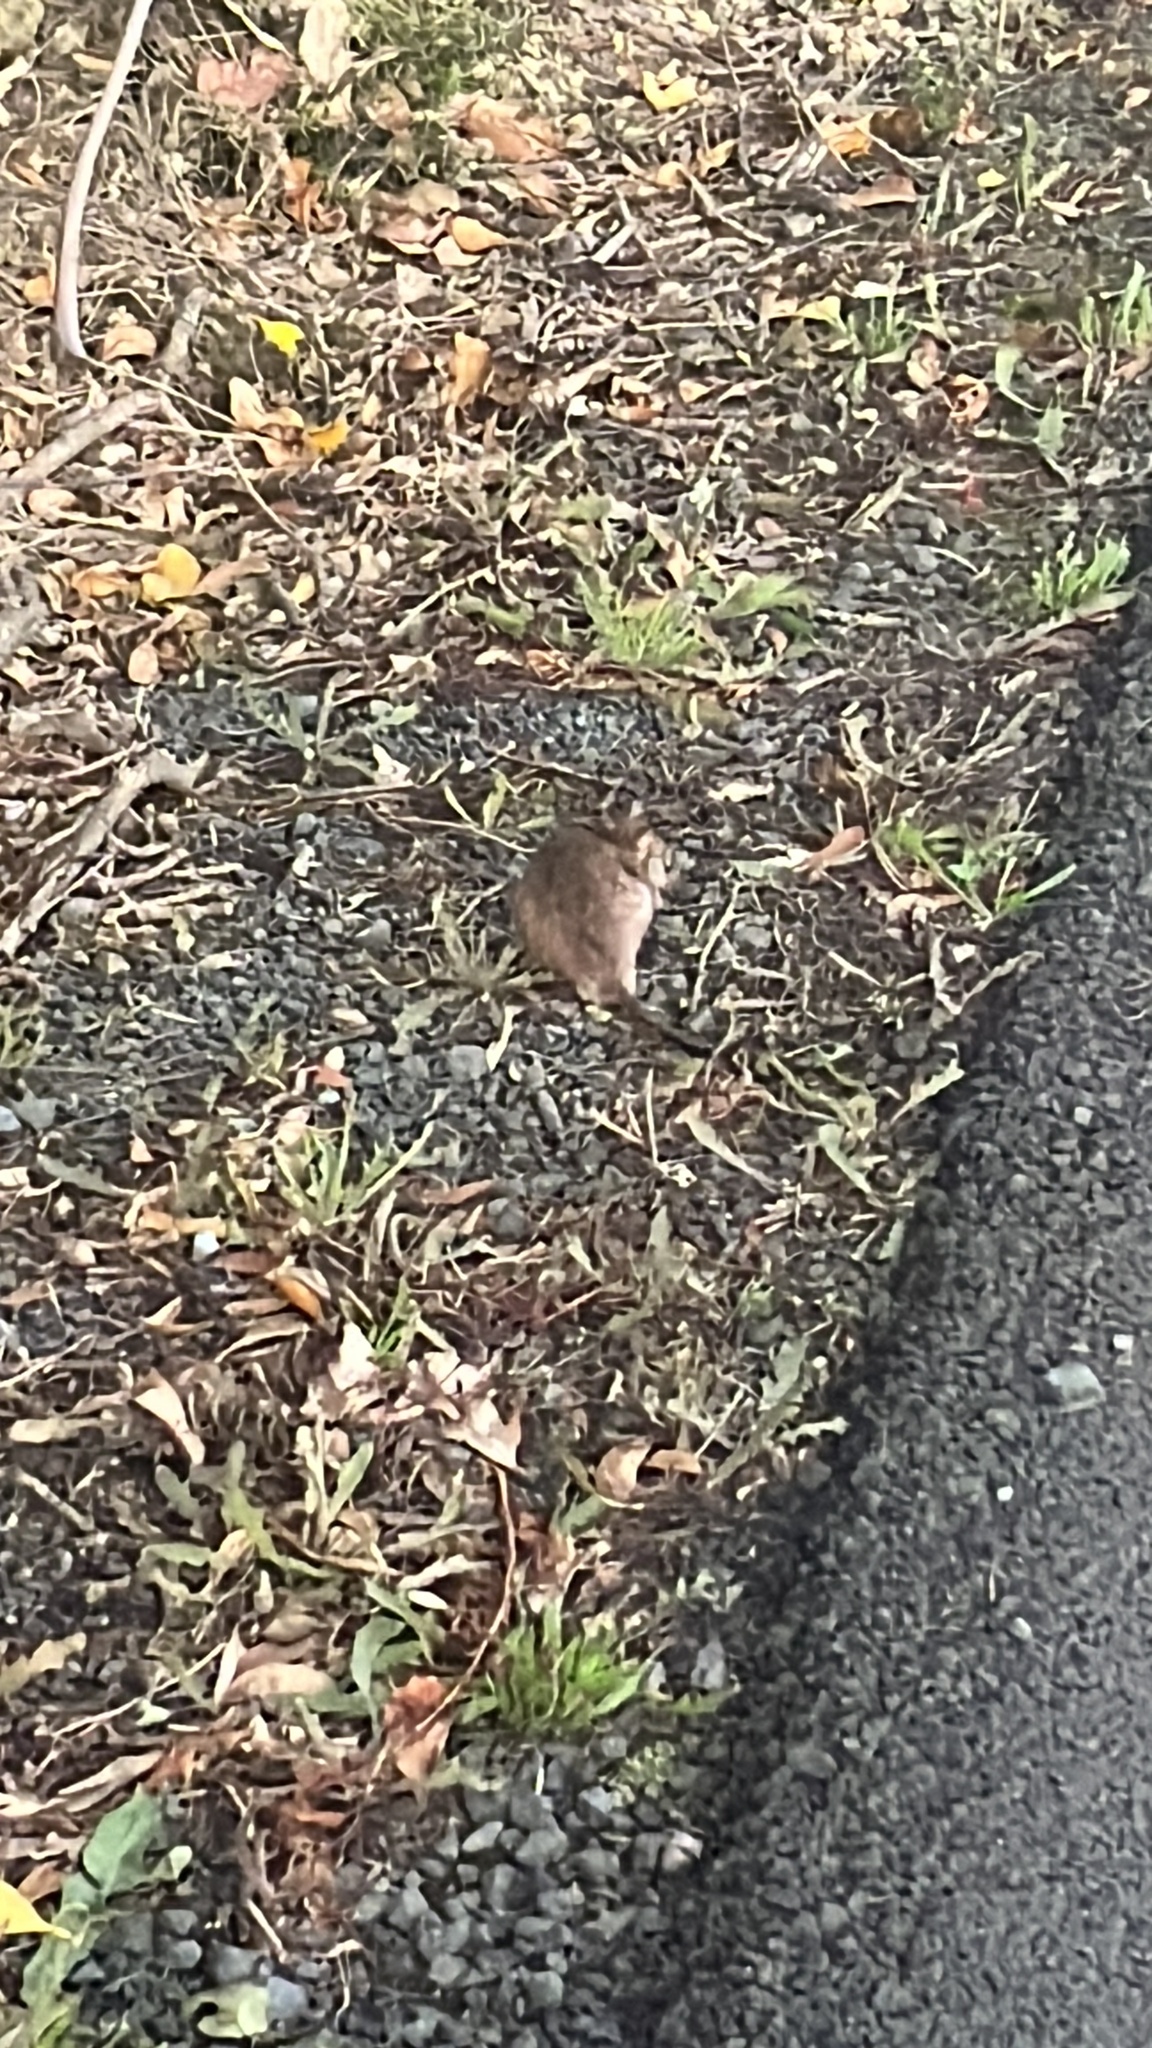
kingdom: Animalia
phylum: Chordata
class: Mammalia
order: Rodentia
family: Muridae
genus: Rattus
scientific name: Rattus norvegicus
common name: Brown rat
